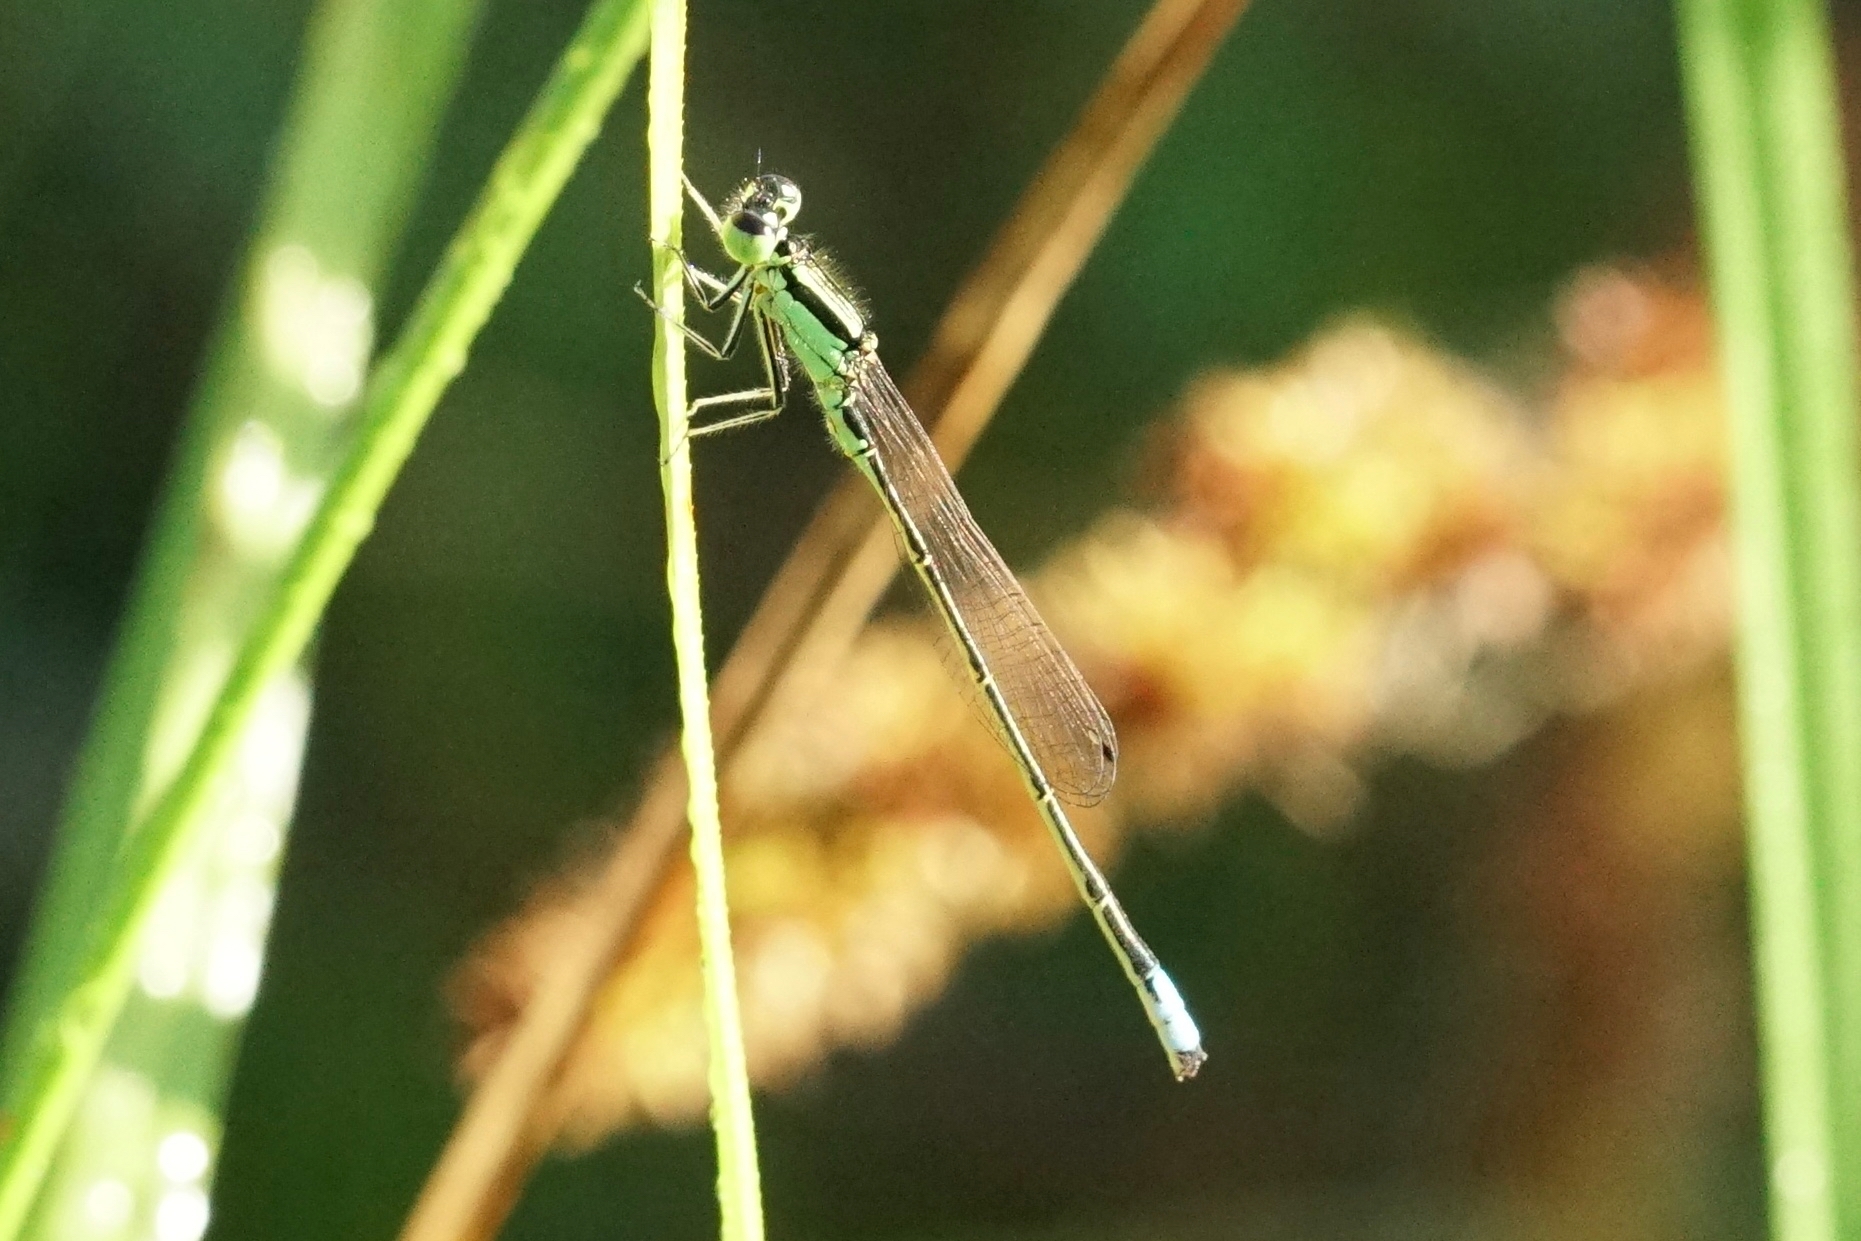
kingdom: Animalia
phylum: Arthropoda
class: Insecta
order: Odonata
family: Coenagrionidae
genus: Ischnura
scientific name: Ischnura verticalis
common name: Eastern forktail
